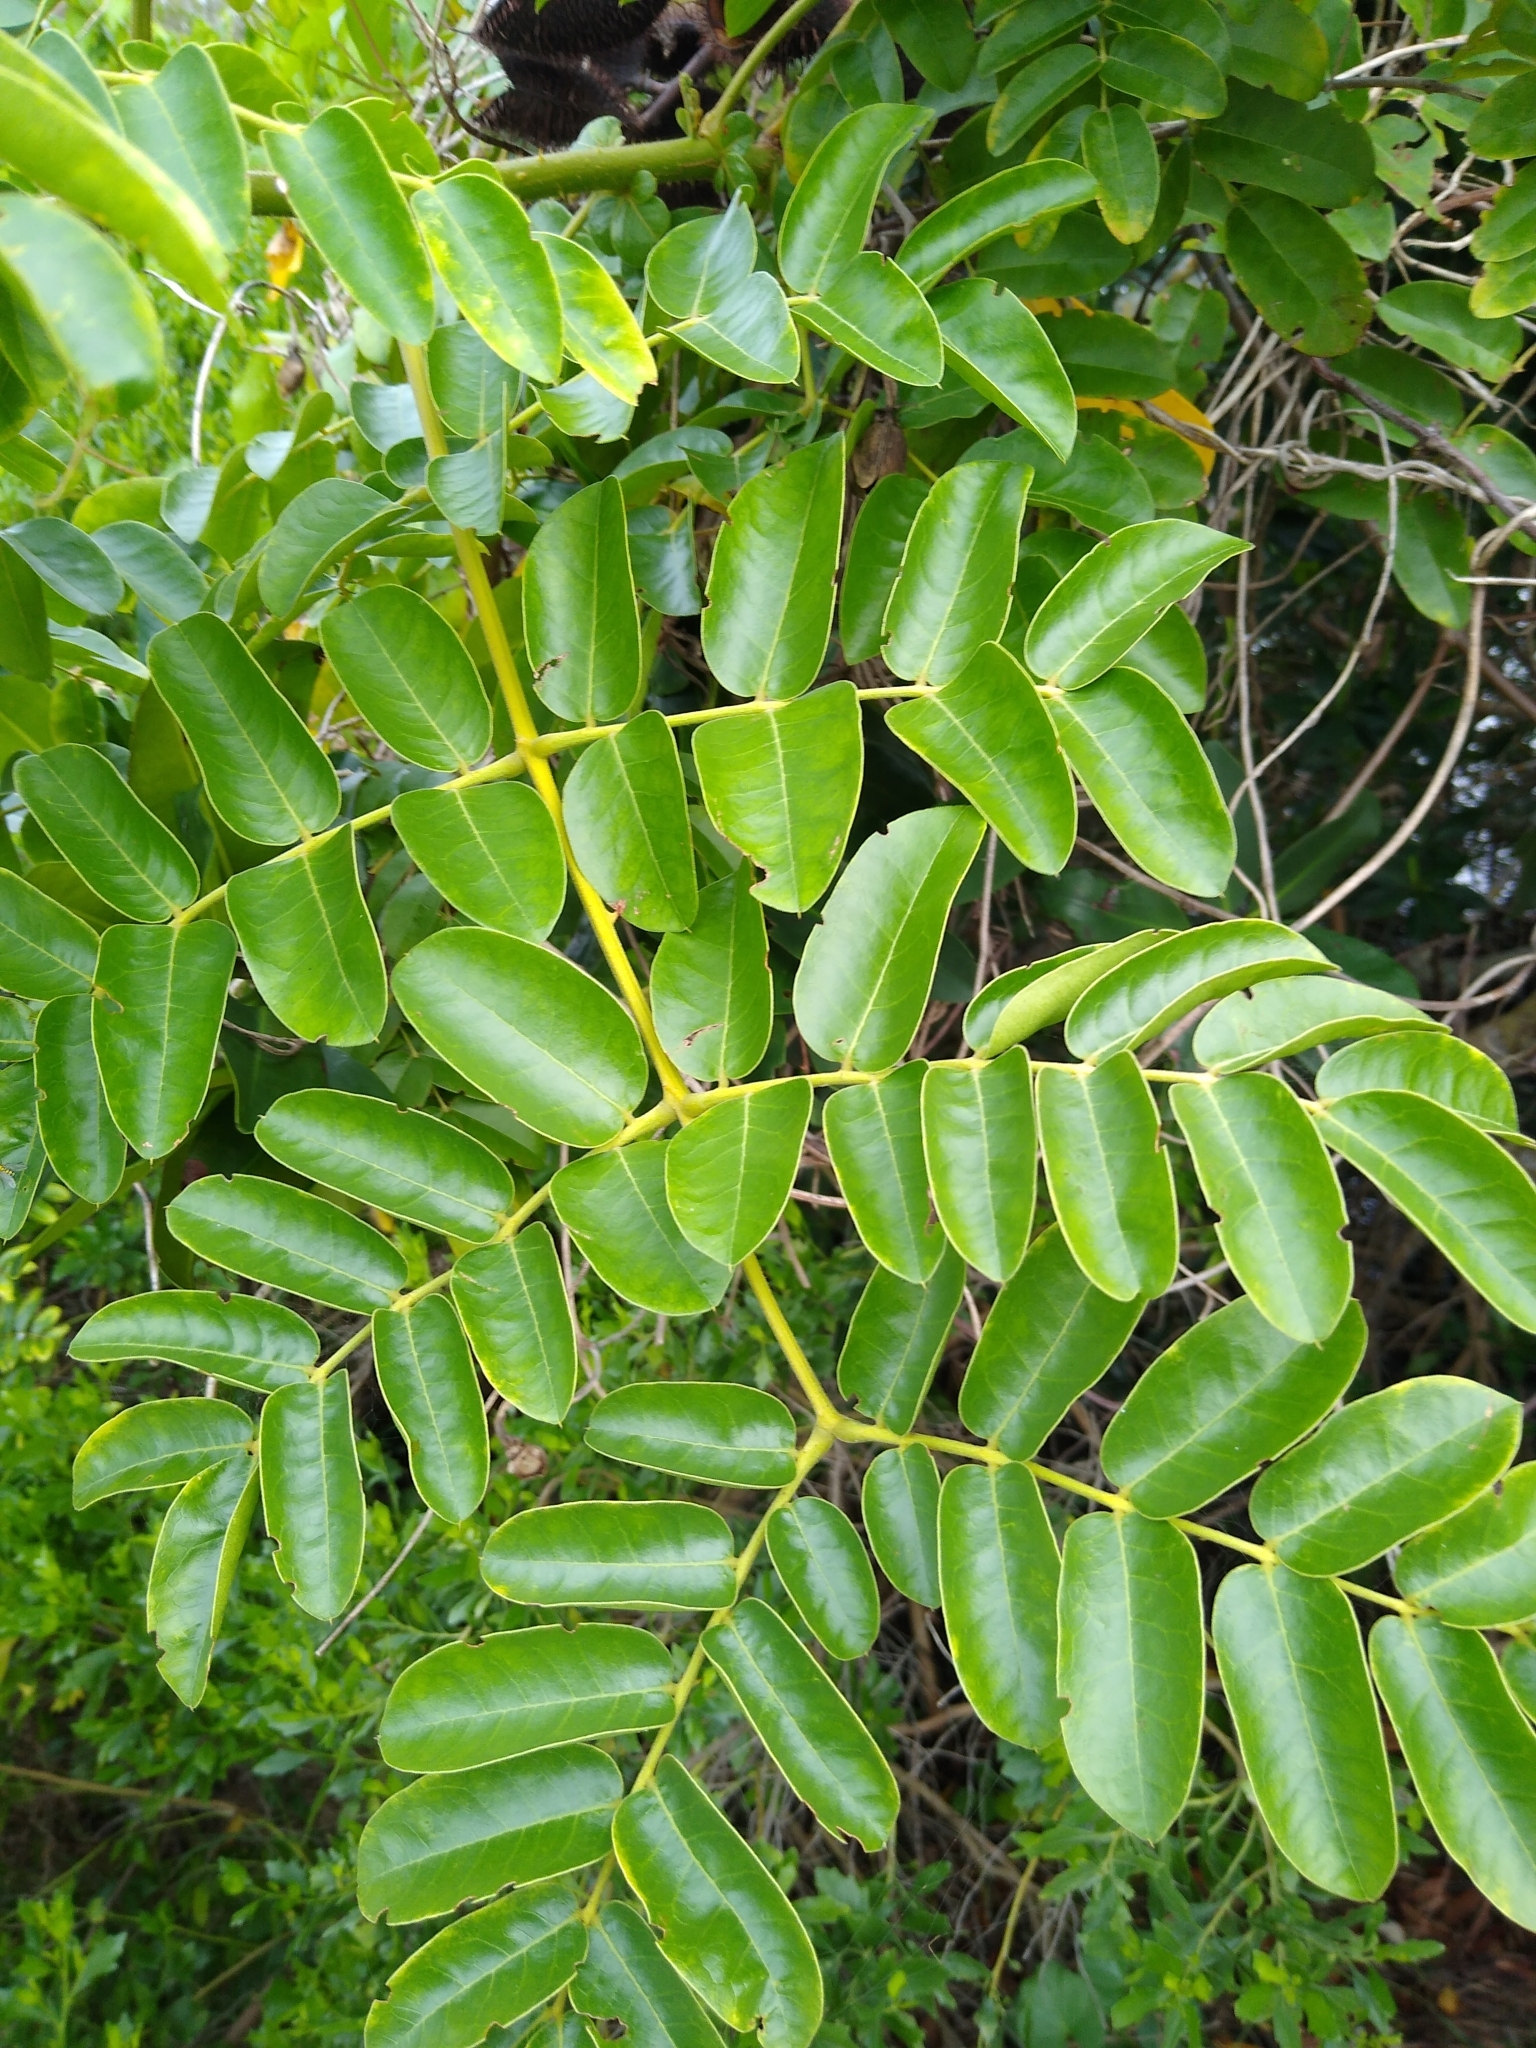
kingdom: Plantae
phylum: Tracheophyta
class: Magnoliopsida
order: Fabales
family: Fabaceae
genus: Guilandina
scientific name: Guilandina bonduc
